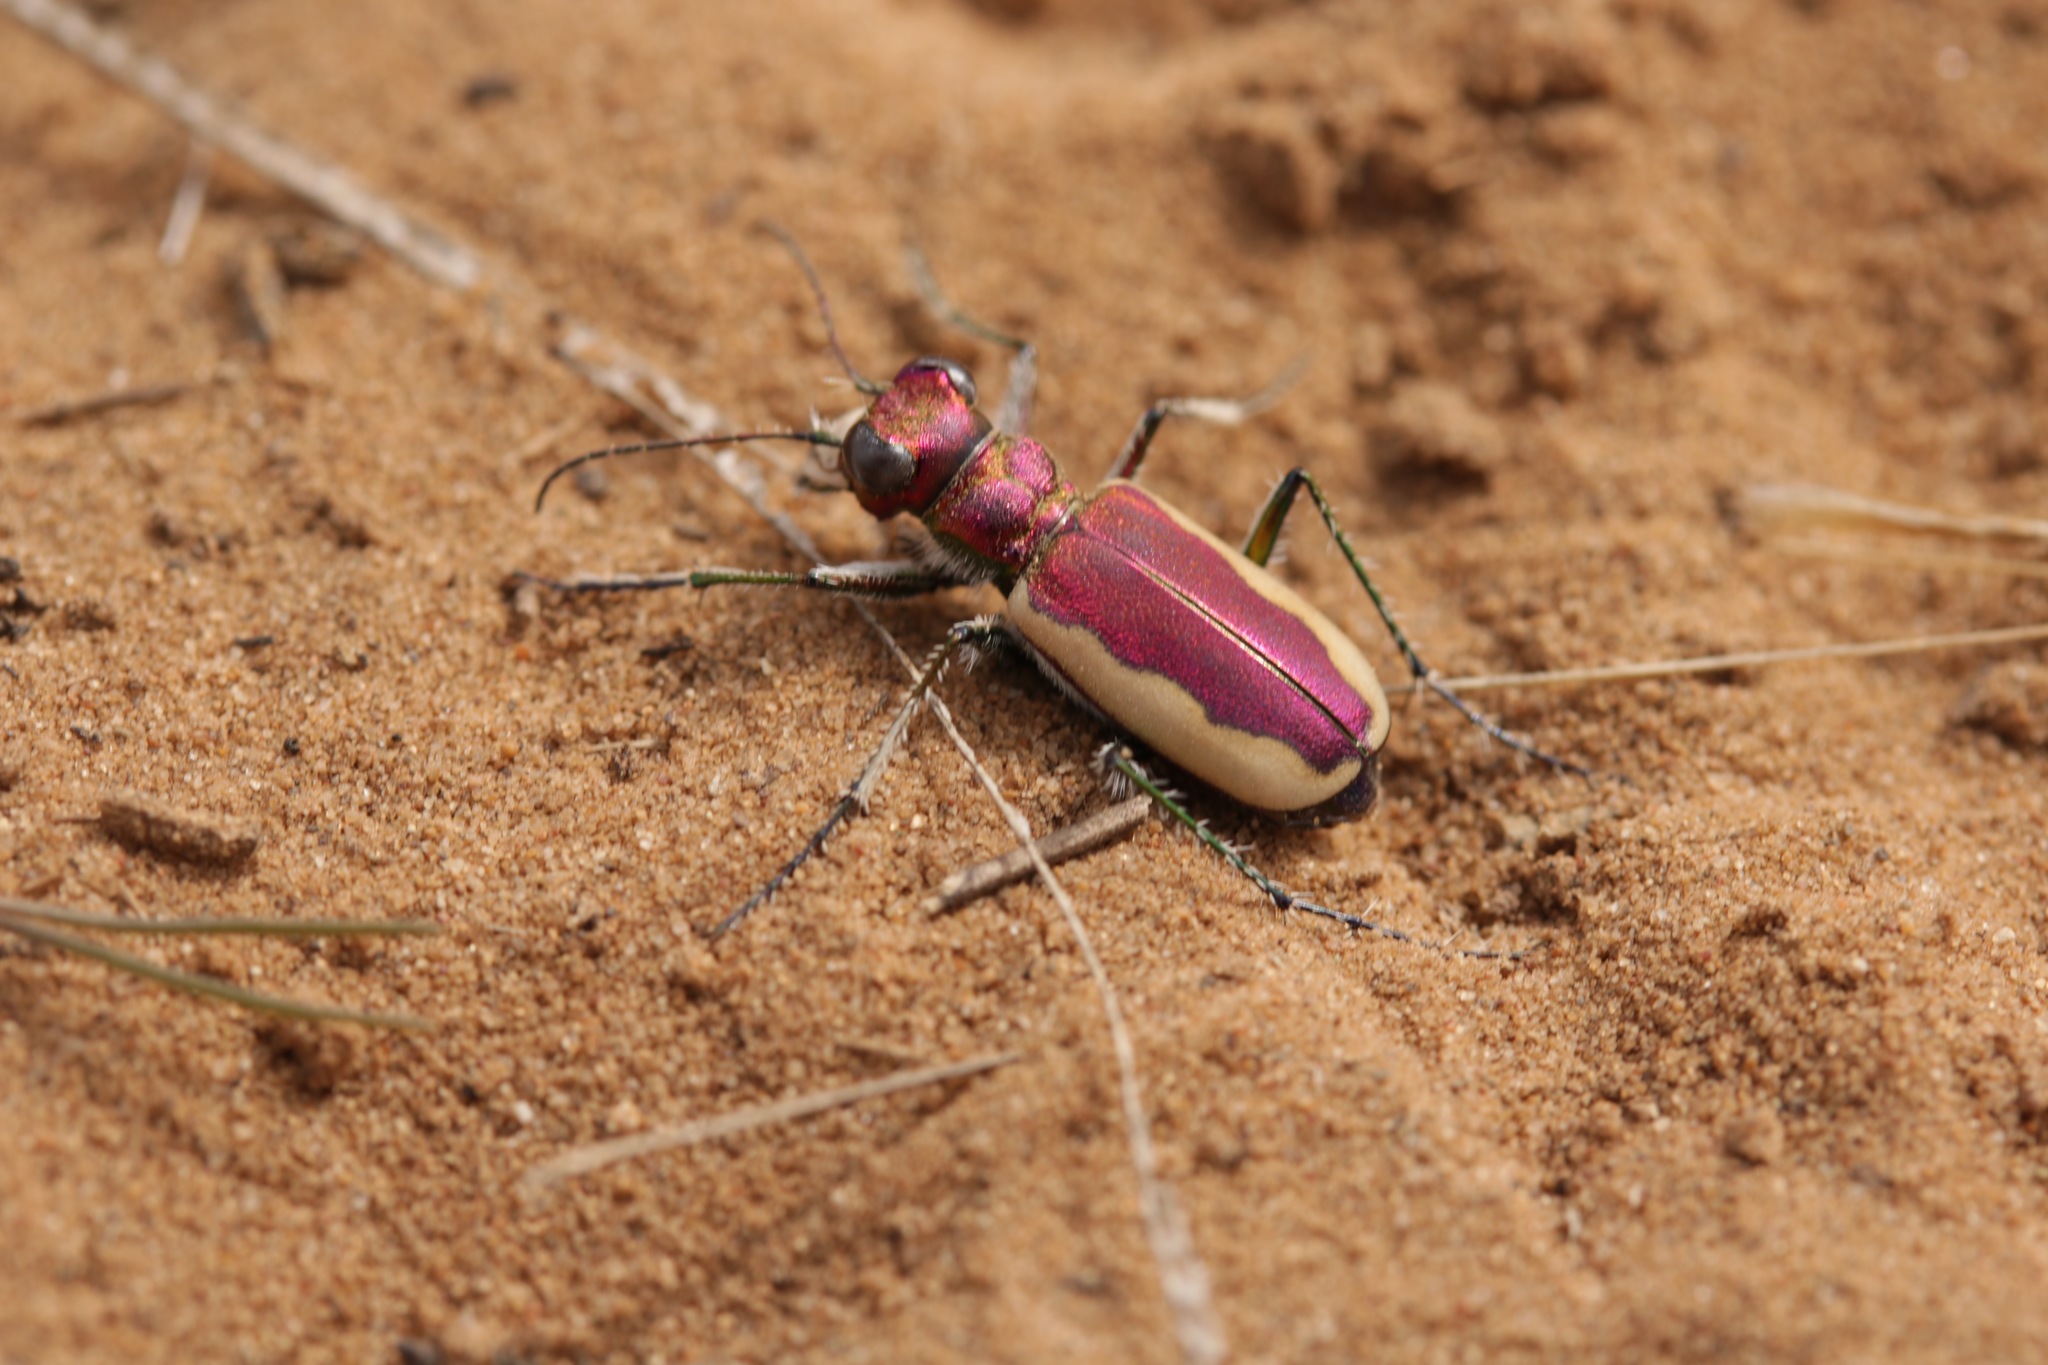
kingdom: Animalia
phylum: Arthropoda
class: Insecta
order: Coleoptera
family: Carabidae
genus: Cicindela
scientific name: Cicindela lacteola
